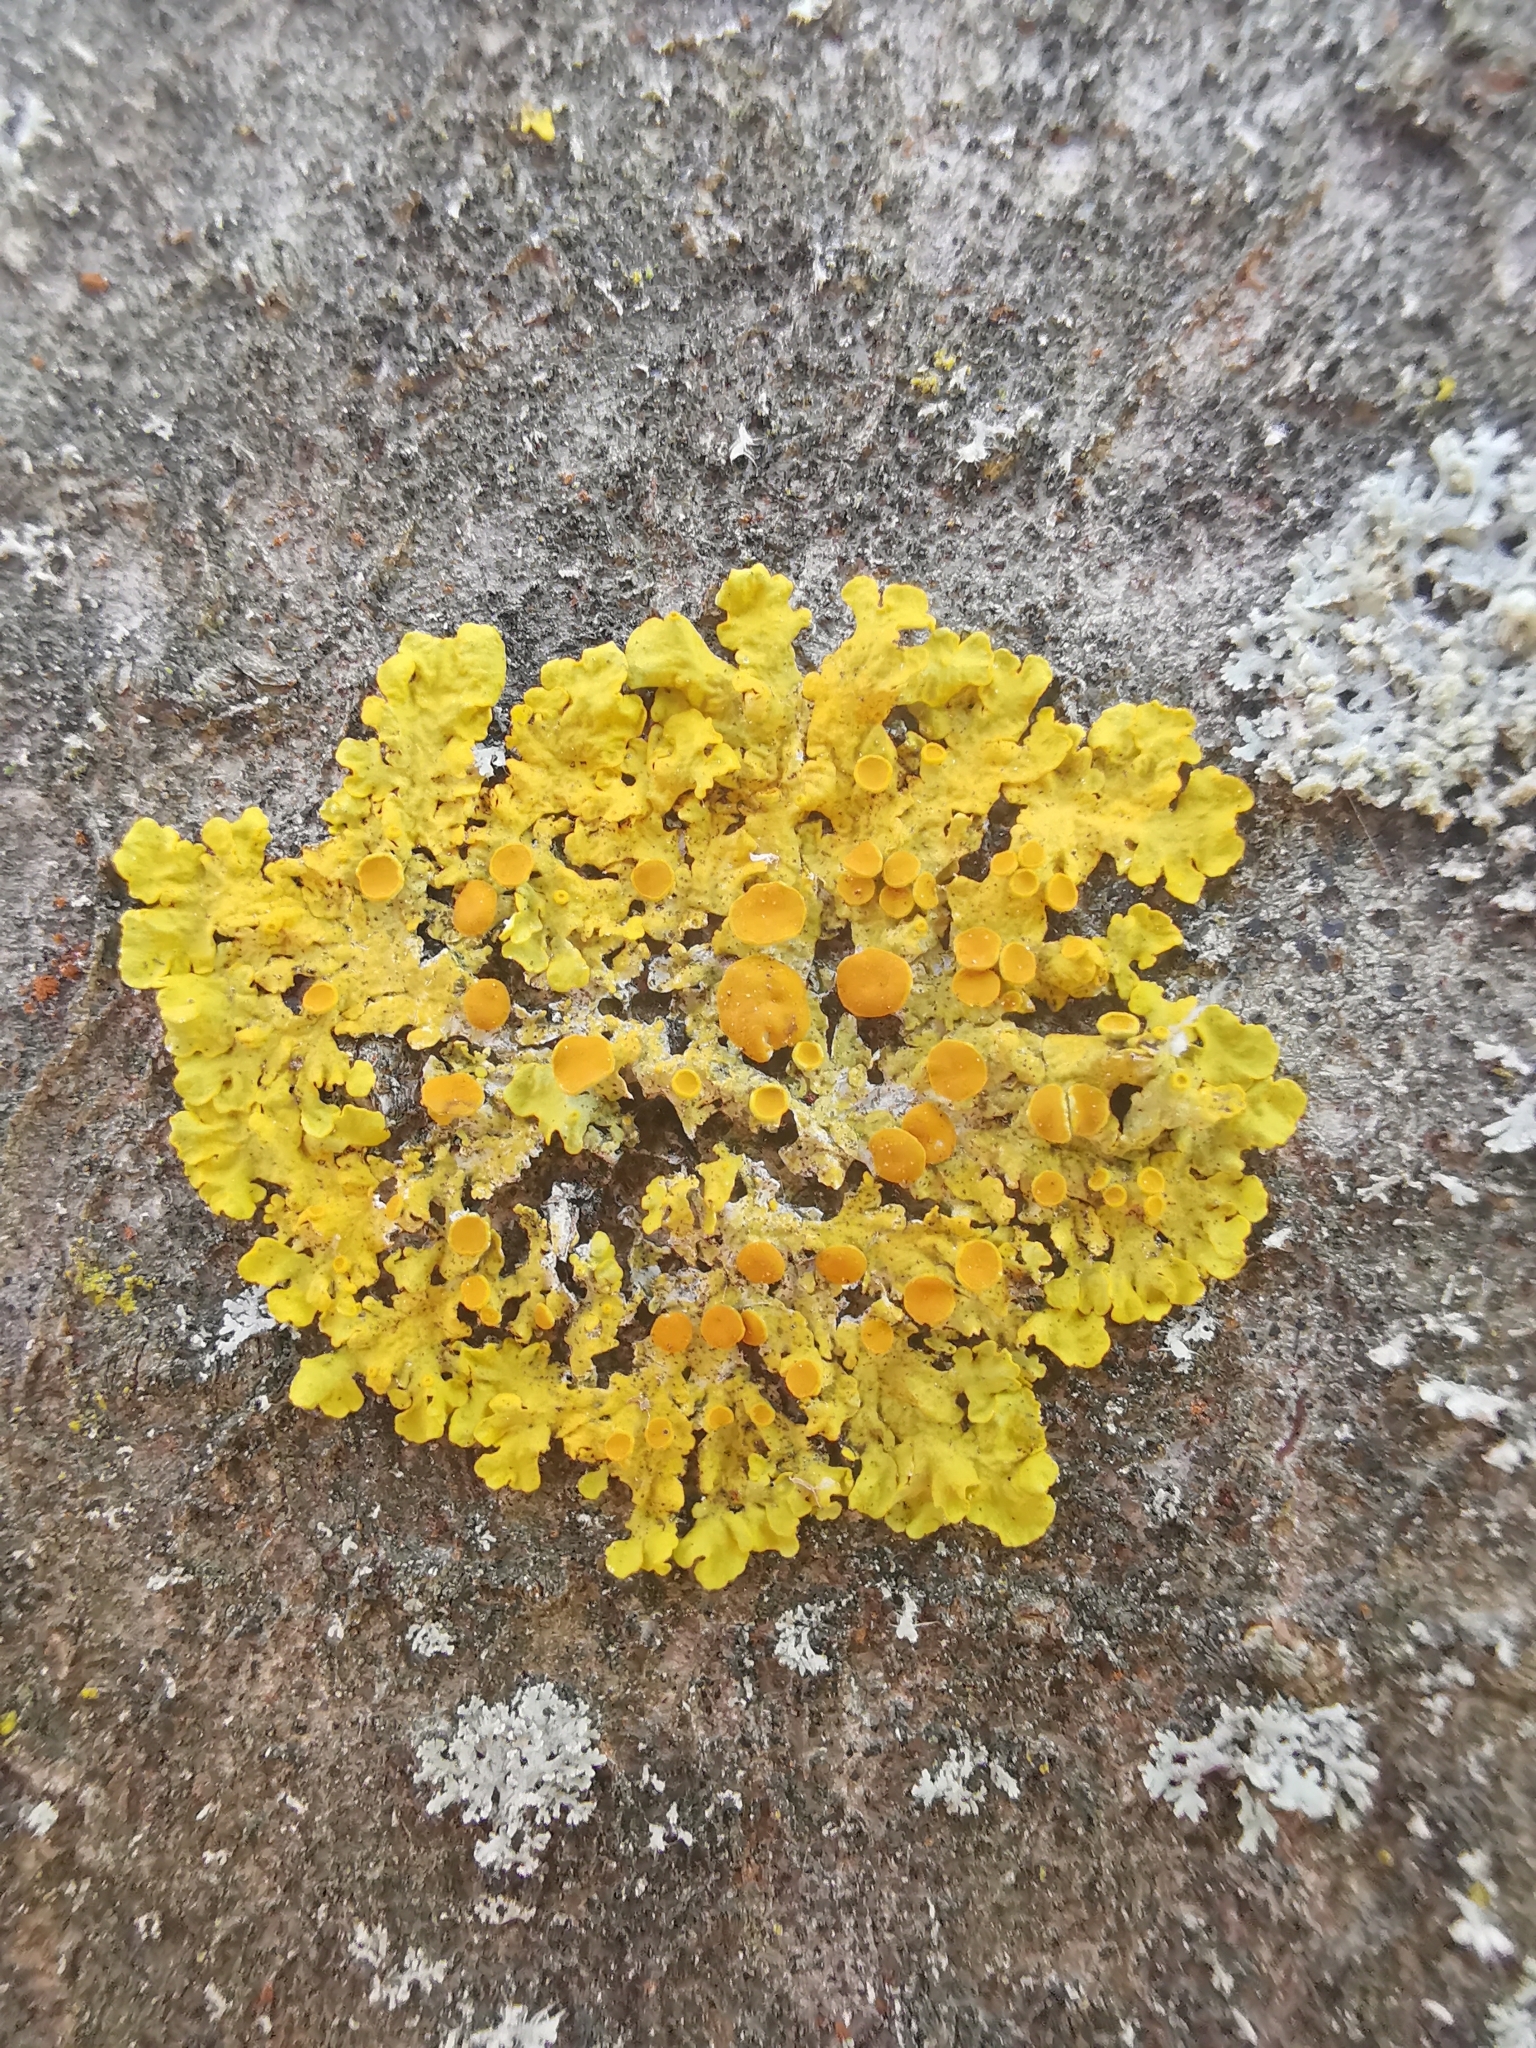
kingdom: Fungi
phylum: Ascomycota
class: Lecanoromycetes
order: Teloschistales
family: Teloschistaceae
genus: Xanthoria
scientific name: Xanthoria parietina
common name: Common orange lichen
